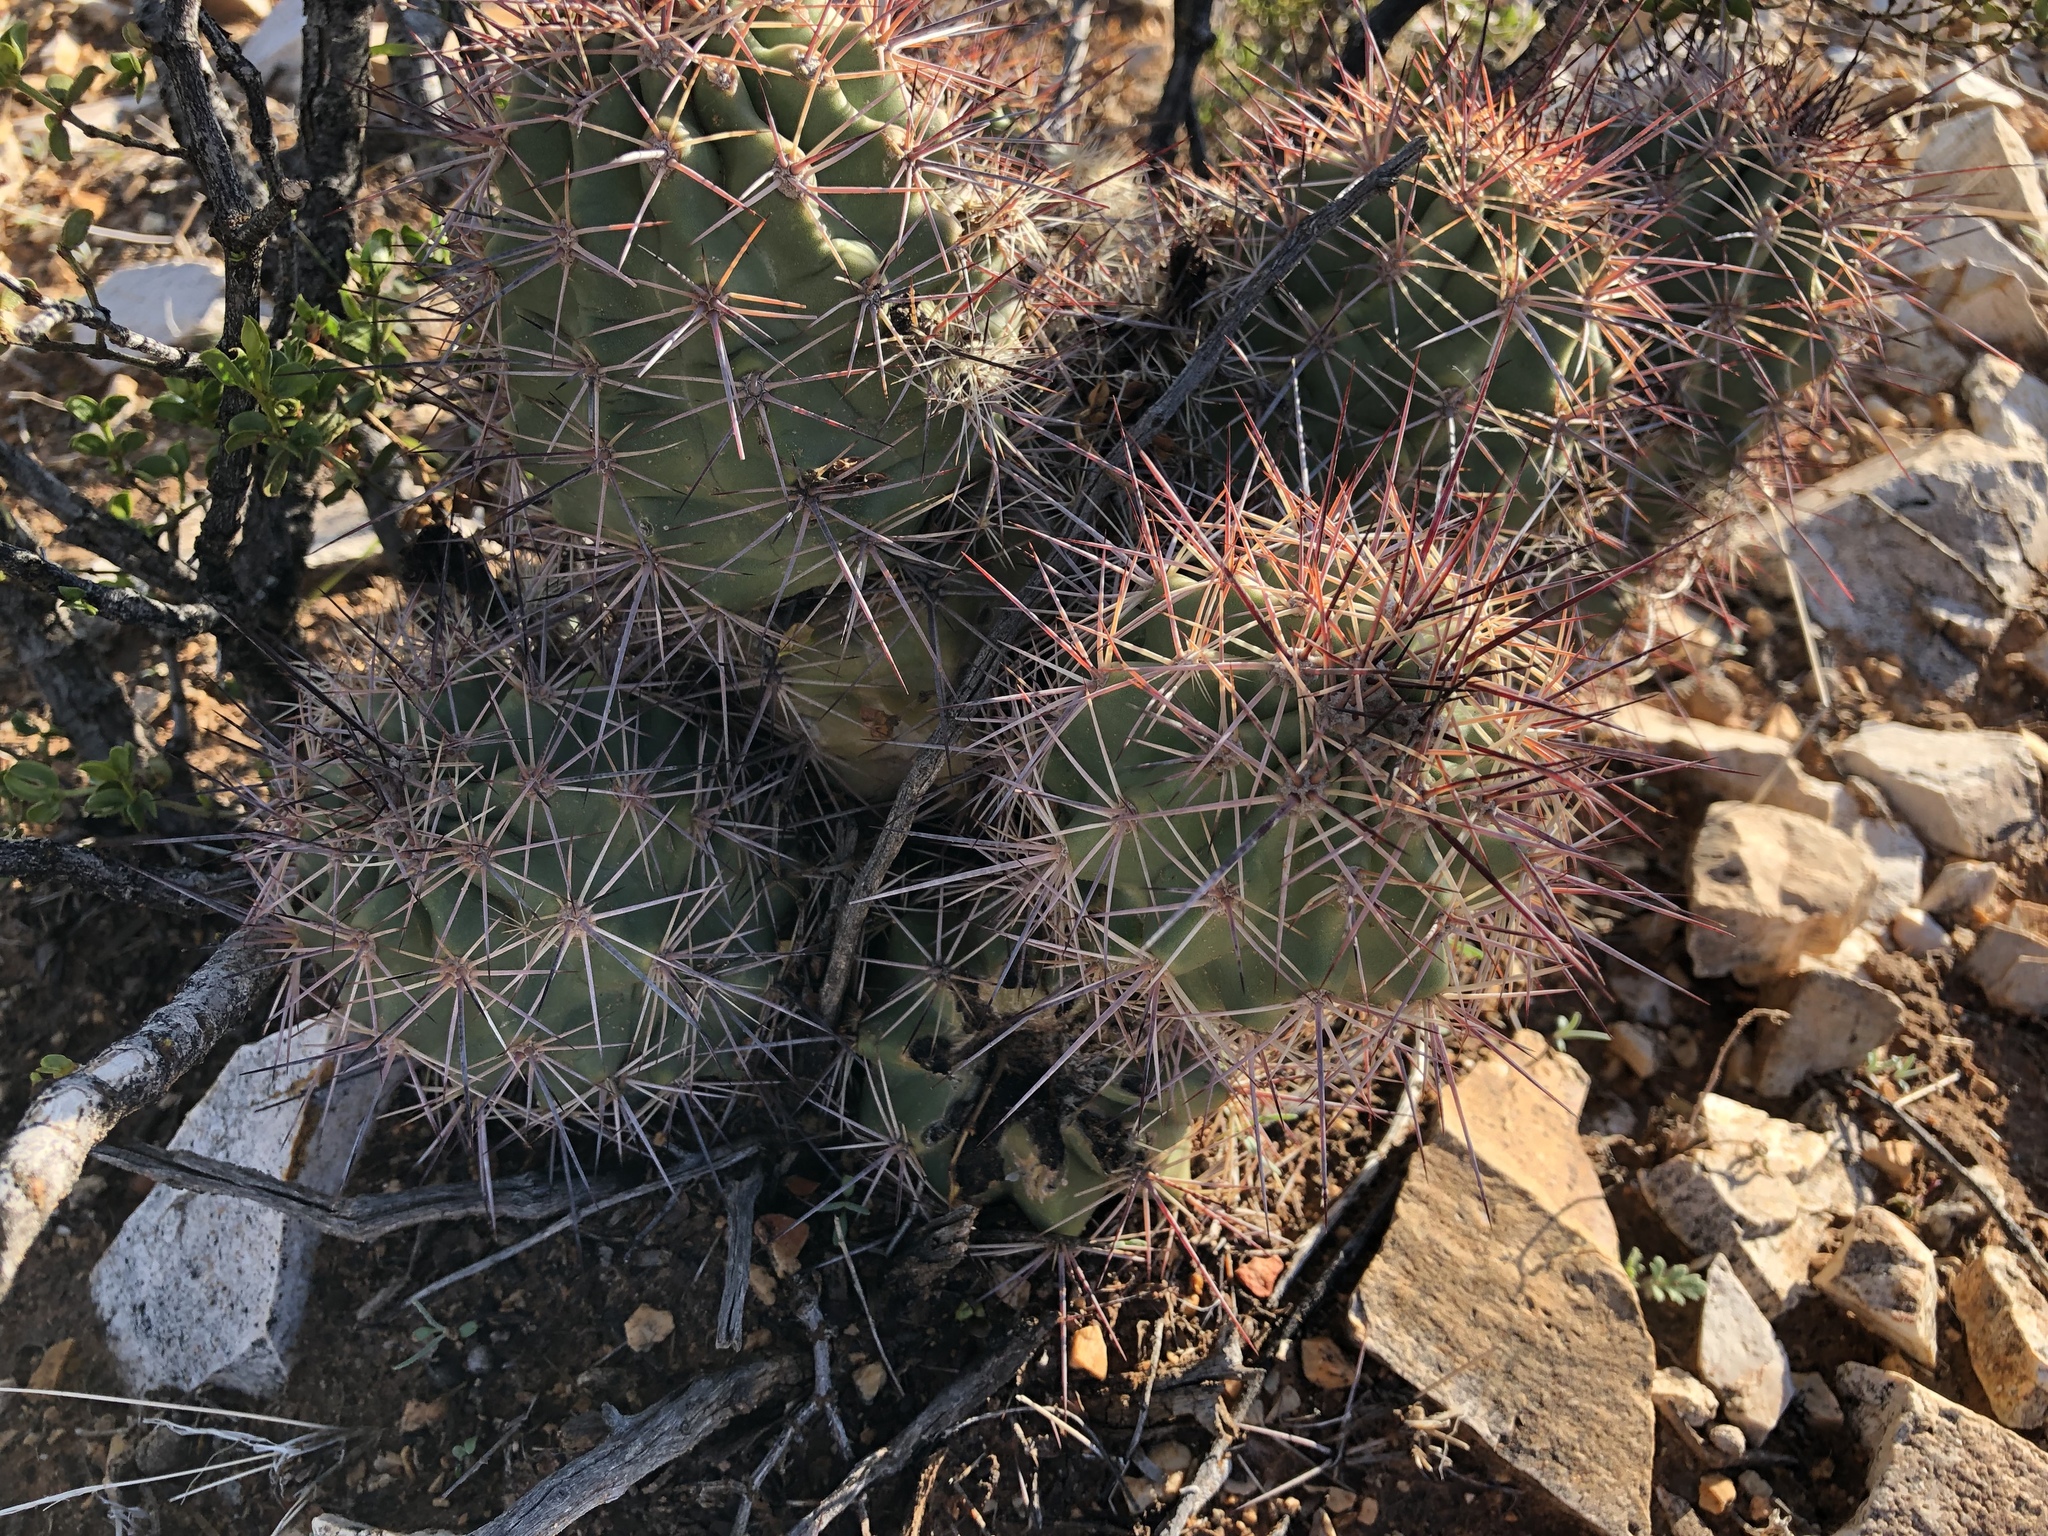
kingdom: Plantae
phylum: Tracheophyta
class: Magnoliopsida
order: Caryophyllales
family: Cactaceae
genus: Echinocereus
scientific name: Echinocereus coccineus
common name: Scarlet hedgehog cactus
